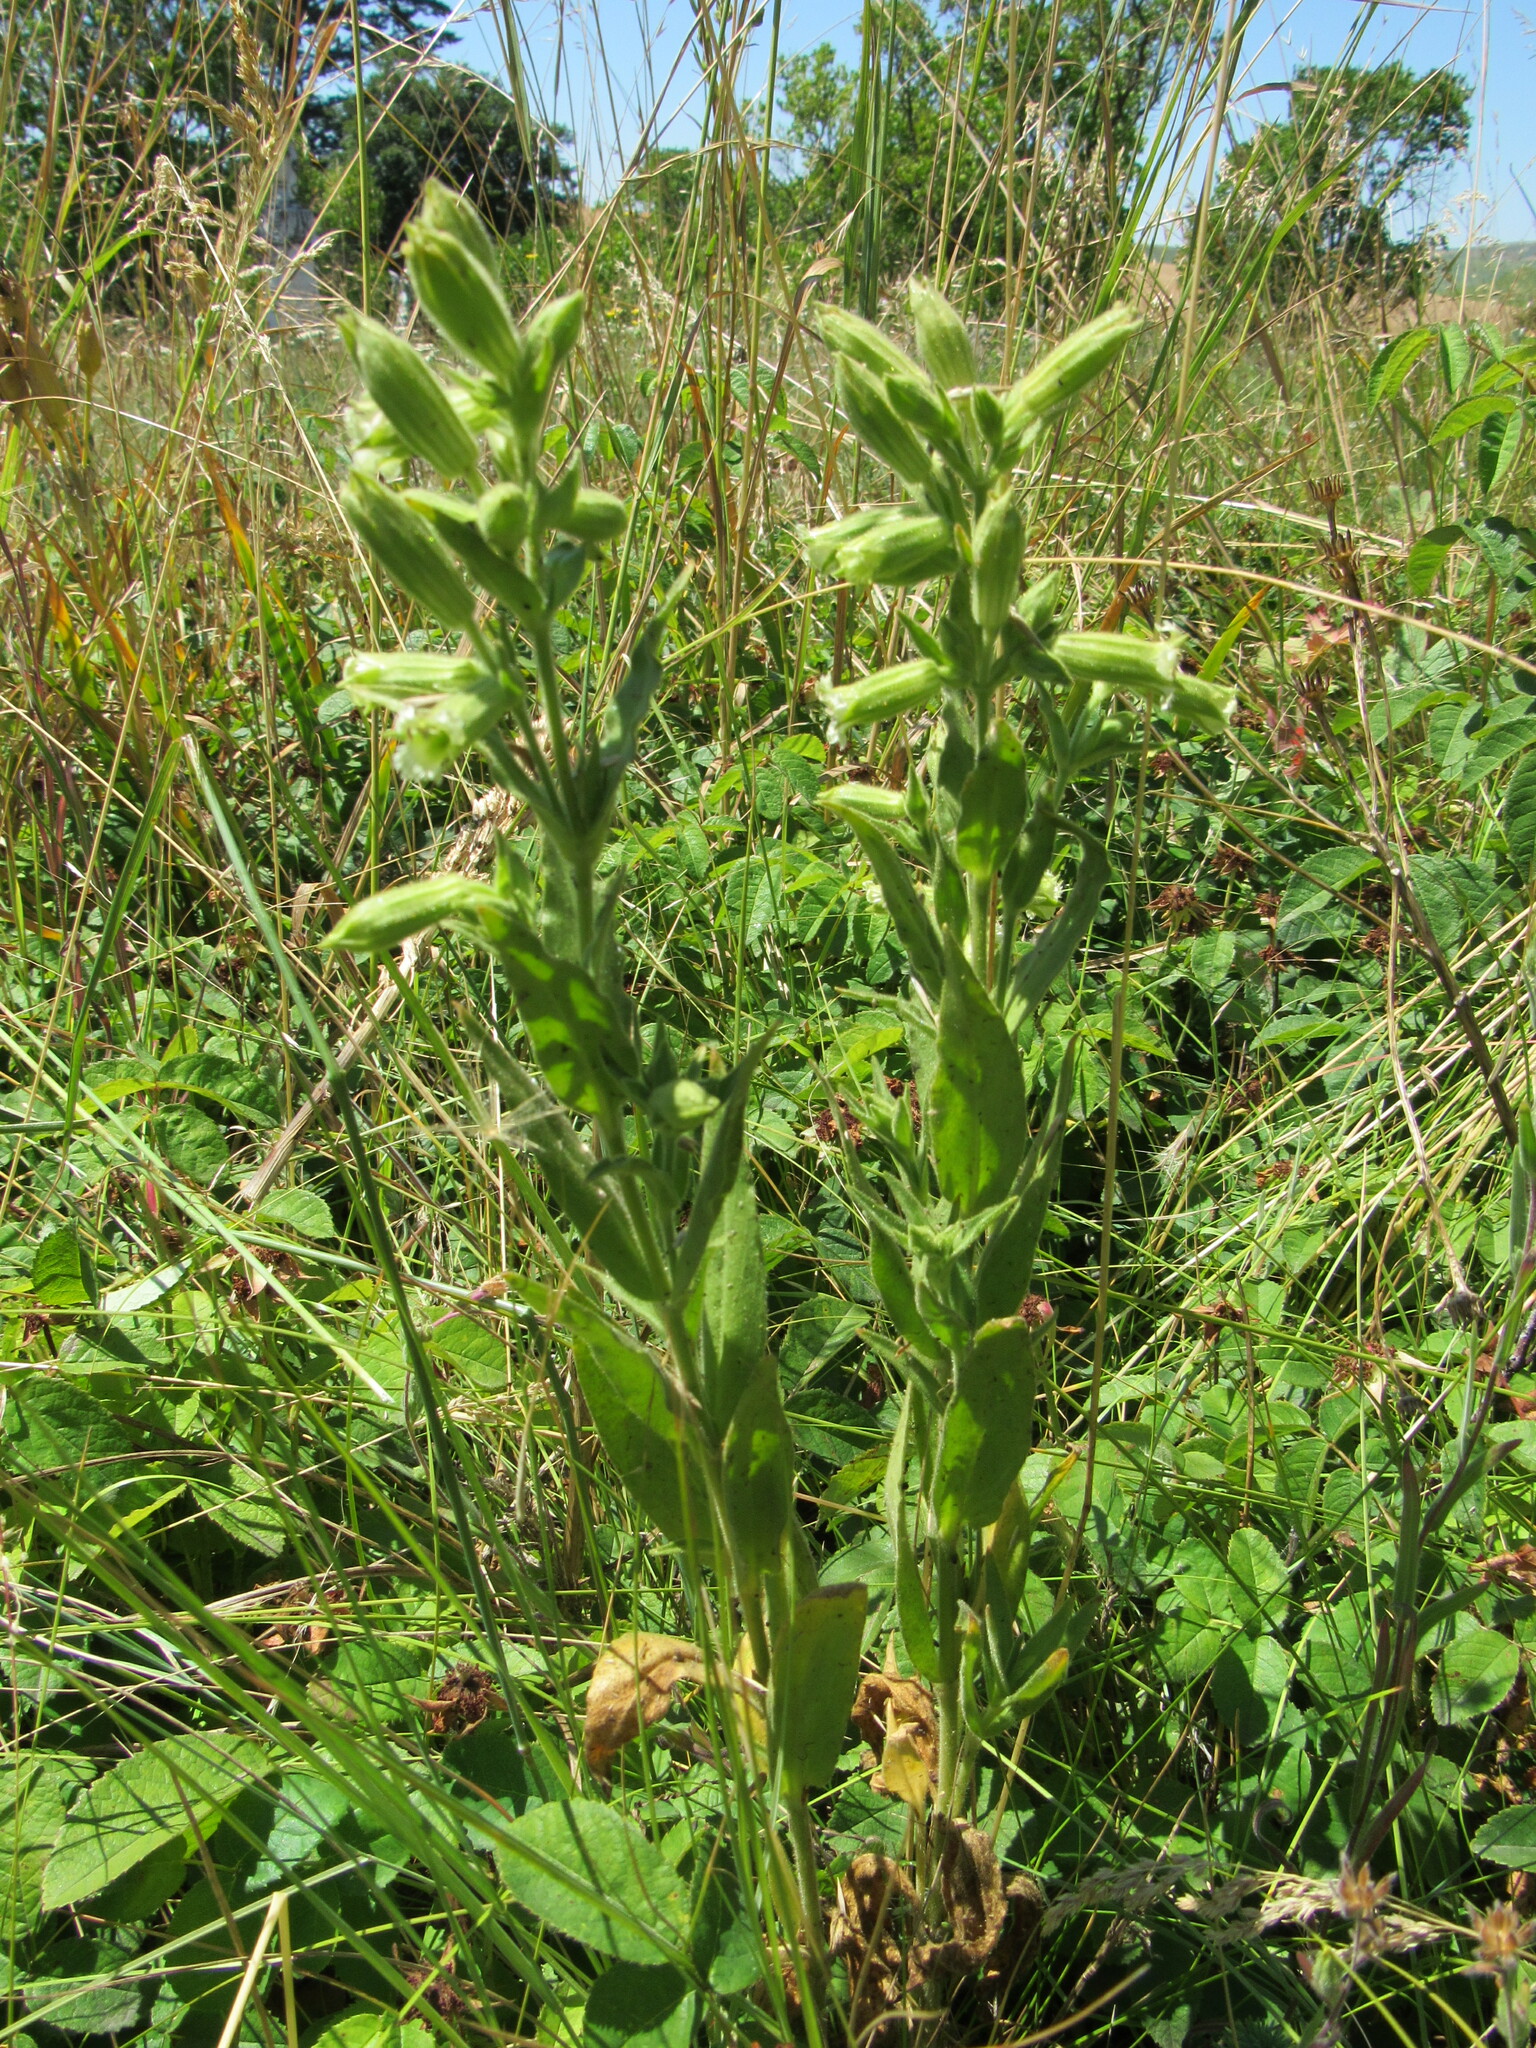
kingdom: Plantae
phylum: Tracheophyta
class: Magnoliopsida
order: Caryophyllales
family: Caryophyllaceae
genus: Silene
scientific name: Silene spaldingii
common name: Spalding's campion
